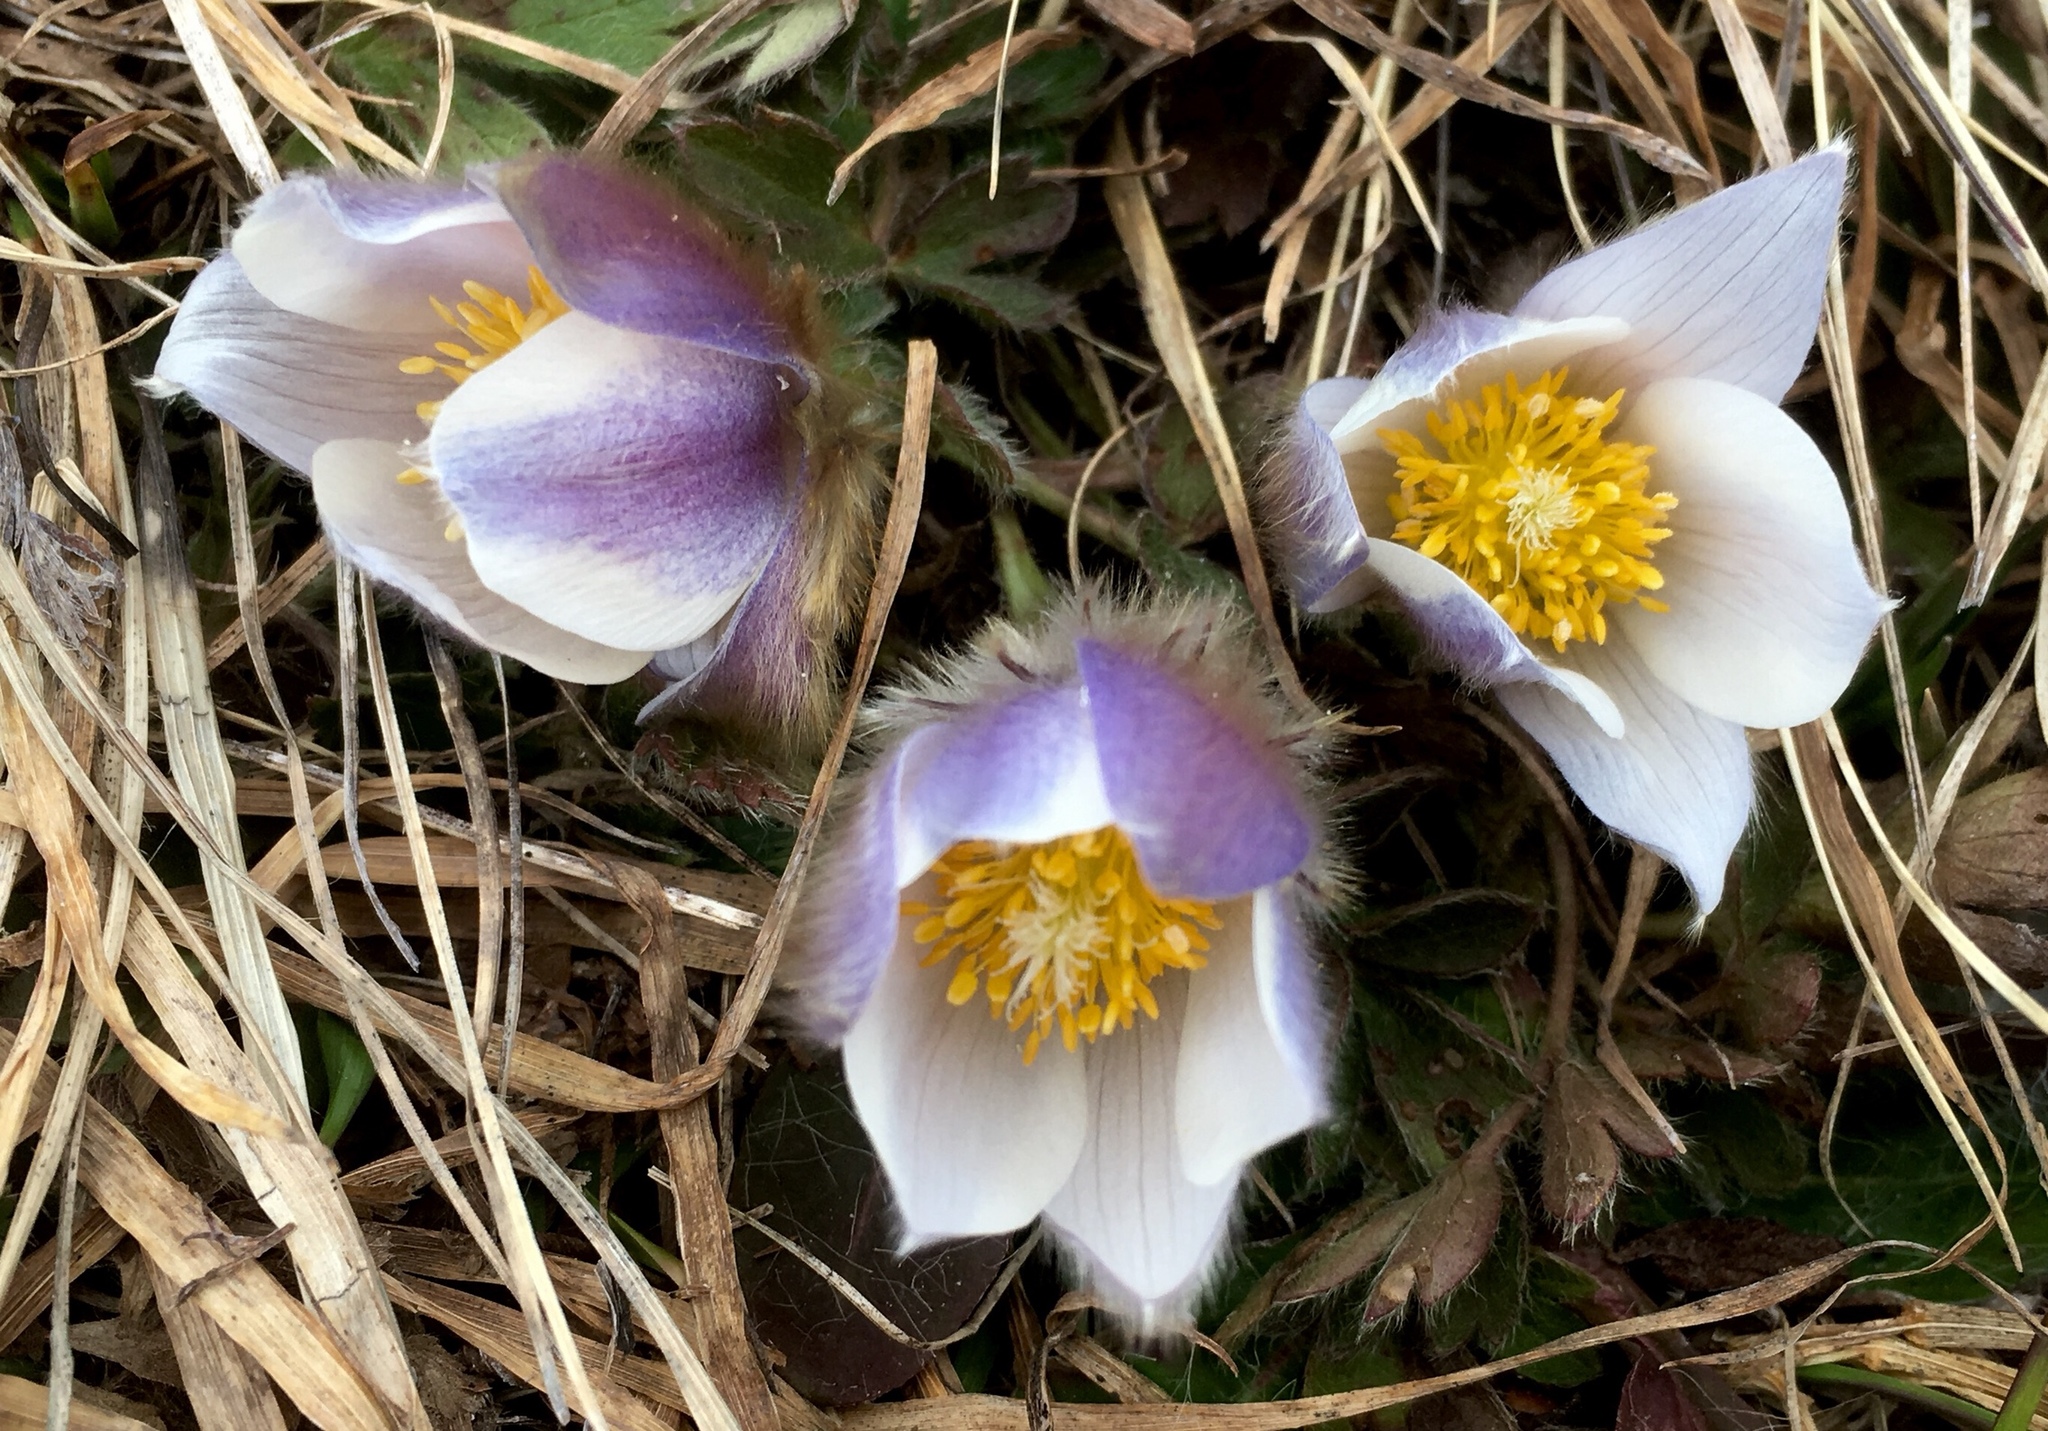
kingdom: Plantae
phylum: Tracheophyta
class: Magnoliopsida
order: Ranunculales
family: Ranunculaceae
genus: Pulsatilla
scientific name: Pulsatilla vernalis
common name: Spring pasque flower
